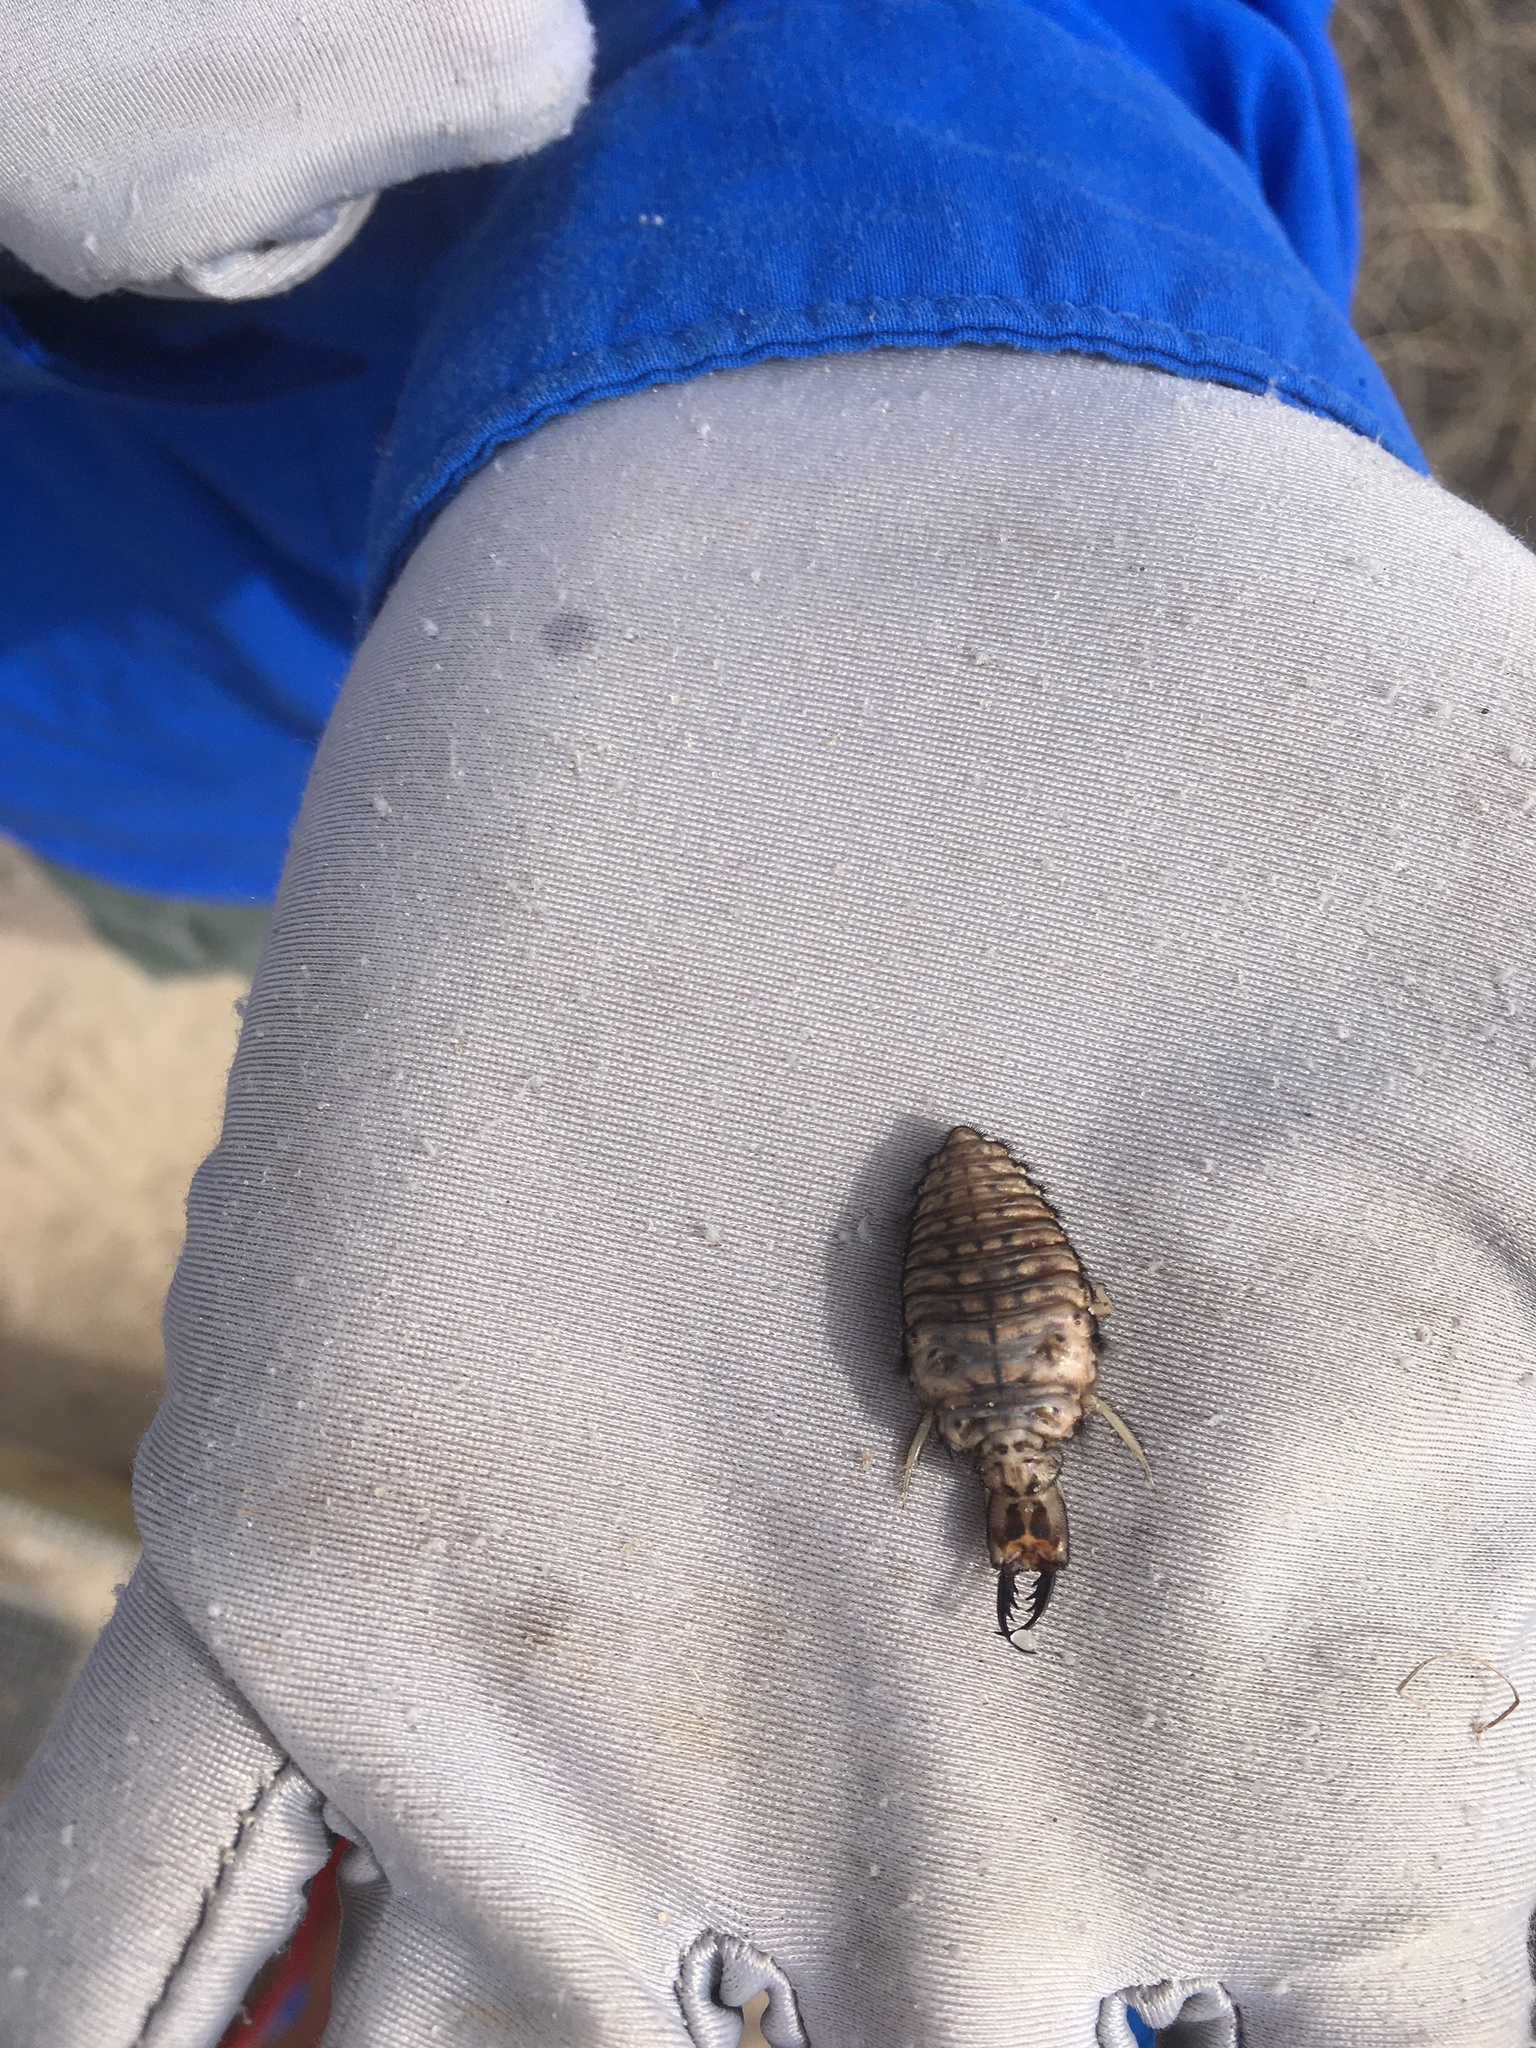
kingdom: Animalia
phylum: Arthropoda
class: Insecta
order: Neuroptera
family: Myrmeleontidae
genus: Vella
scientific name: Vella americana
